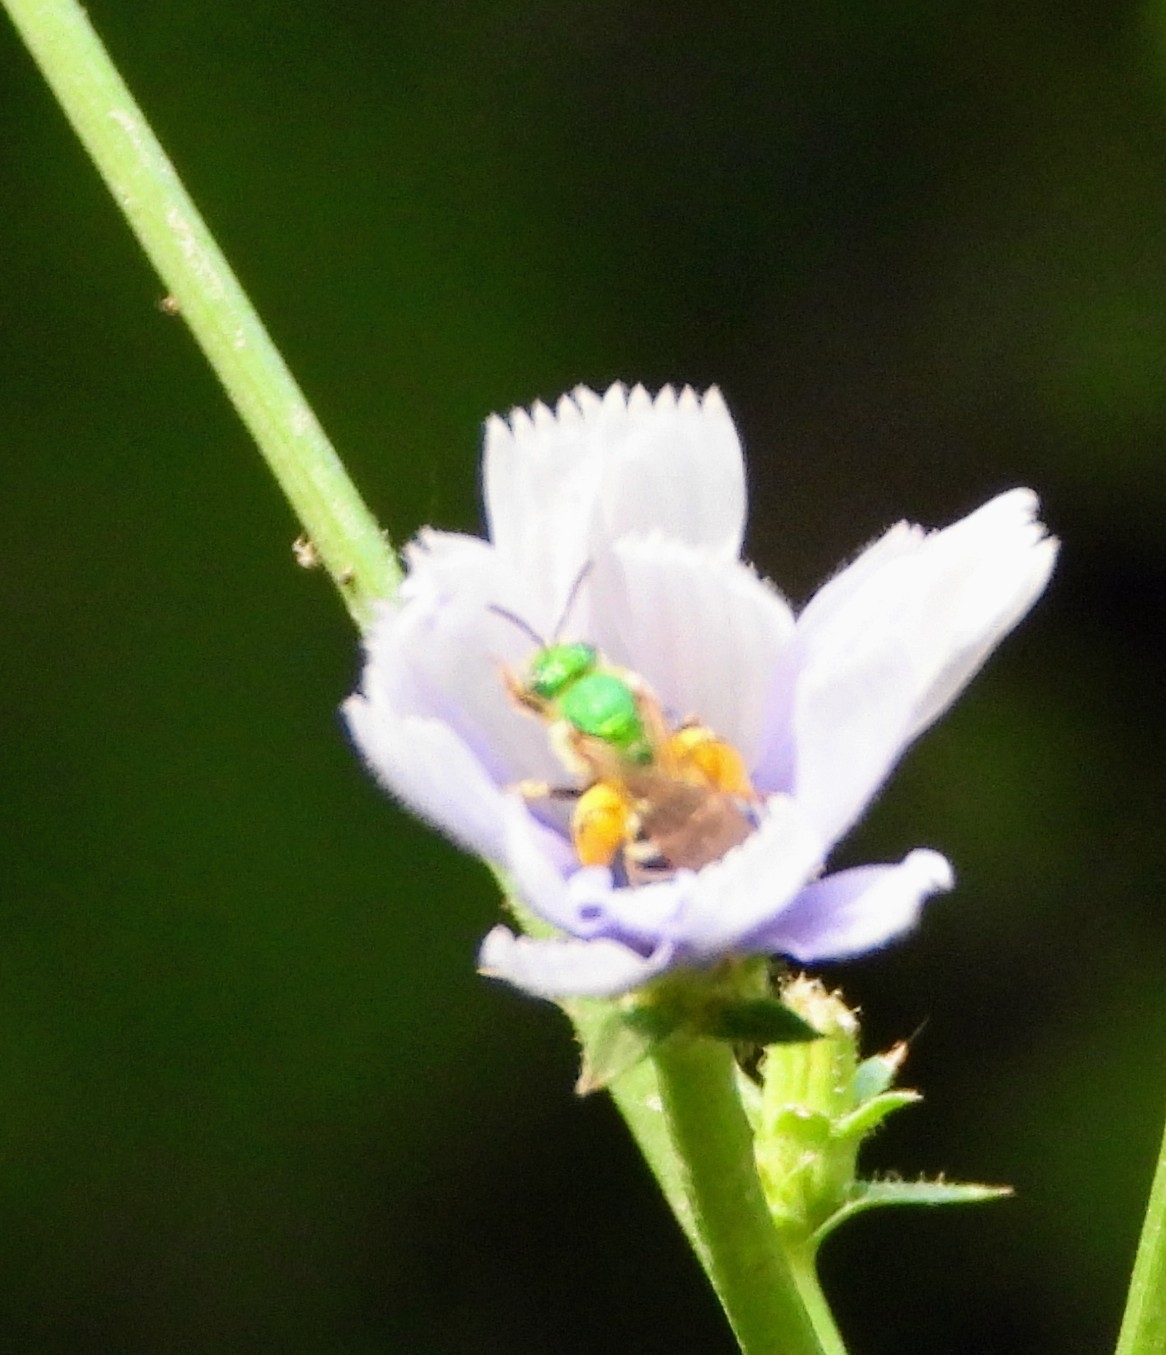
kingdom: Animalia
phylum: Arthropoda
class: Insecta
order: Hymenoptera
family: Halictidae
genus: Agapostemon
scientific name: Agapostemon virescens
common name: Bicolored striped sweat bee
